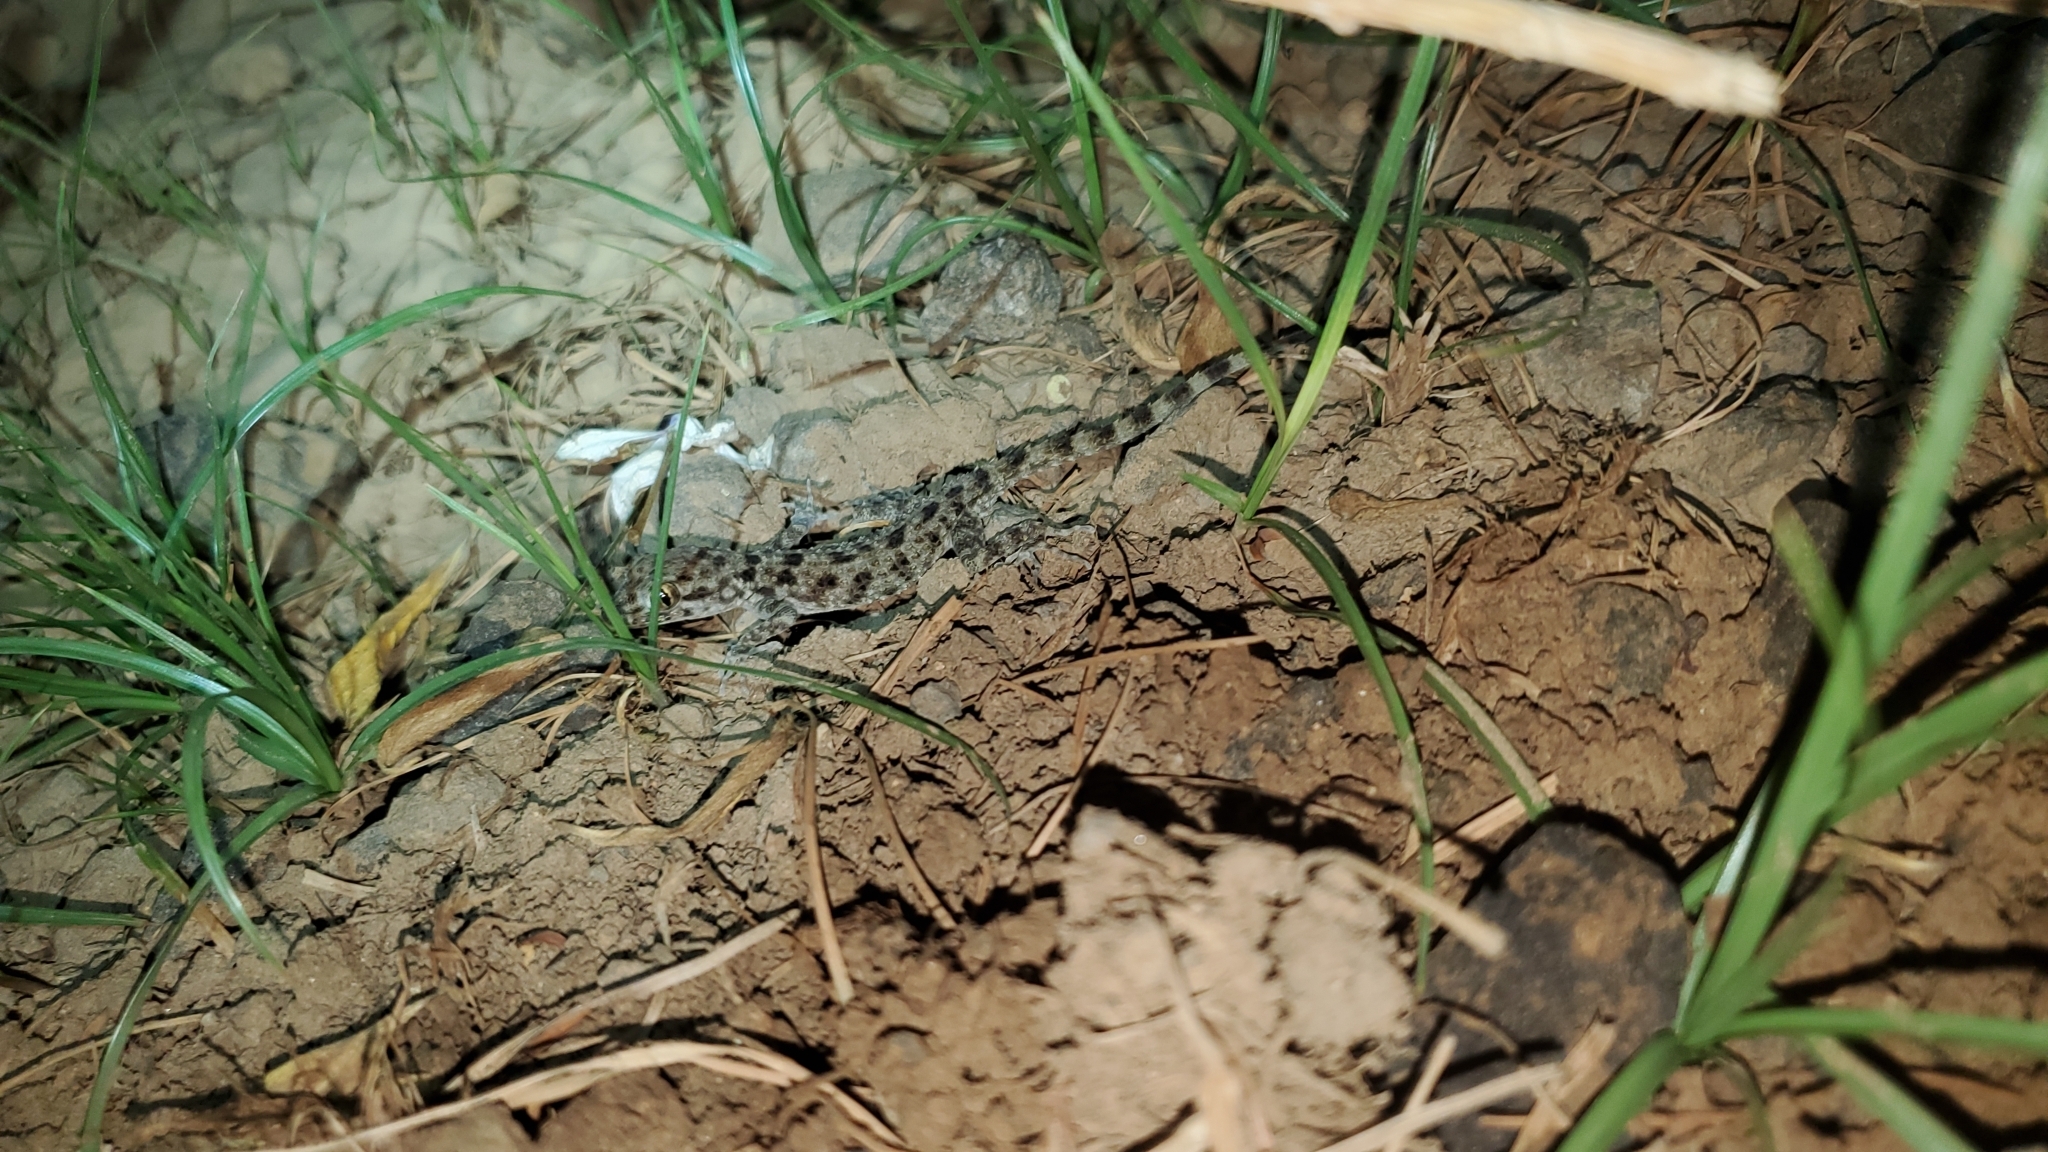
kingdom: Animalia
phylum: Chordata
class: Squamata
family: Gekkonidae
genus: Cyrtopodion
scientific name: Cyrtopodion scabrum
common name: Rough-tailed gecko
